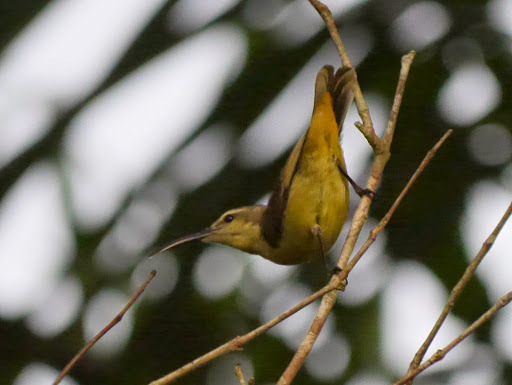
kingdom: Animalia
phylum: Chordata
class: Aves
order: Passeriformes
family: Nectariniidae
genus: Cinnyris
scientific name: Cinnyris superbus
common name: Superb sunbird
